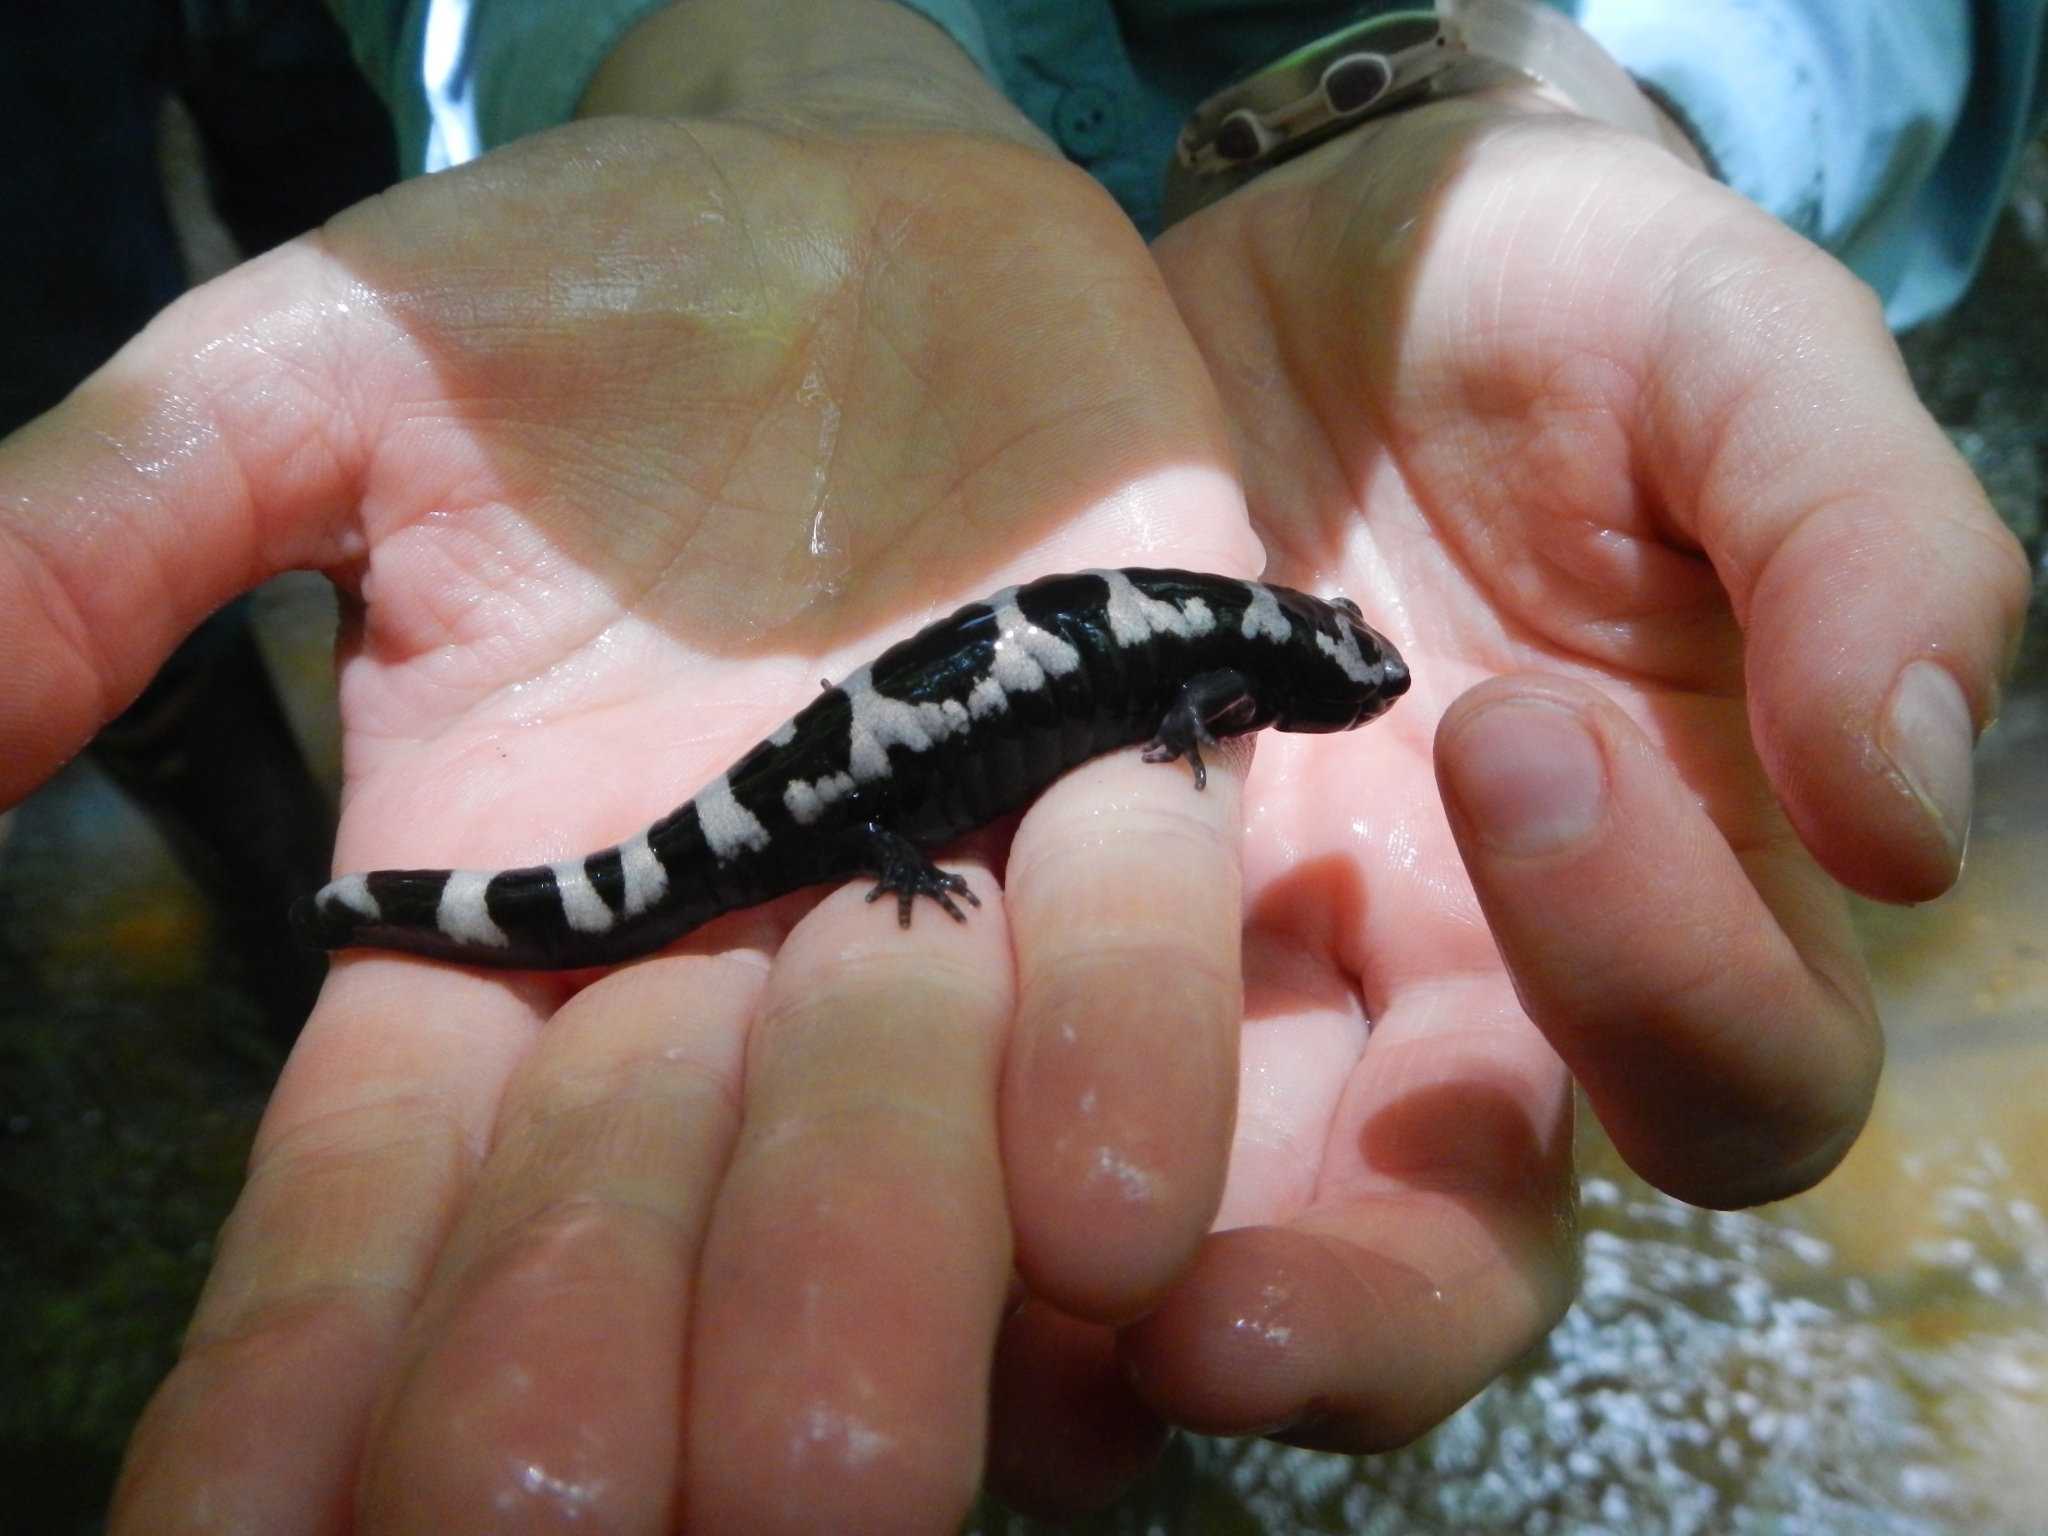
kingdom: Animalia
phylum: Chordata
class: Amphibia
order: Caudata
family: Ambystomatidae
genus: Ambystoma
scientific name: Ambystoma opacum
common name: Marbled salamander
